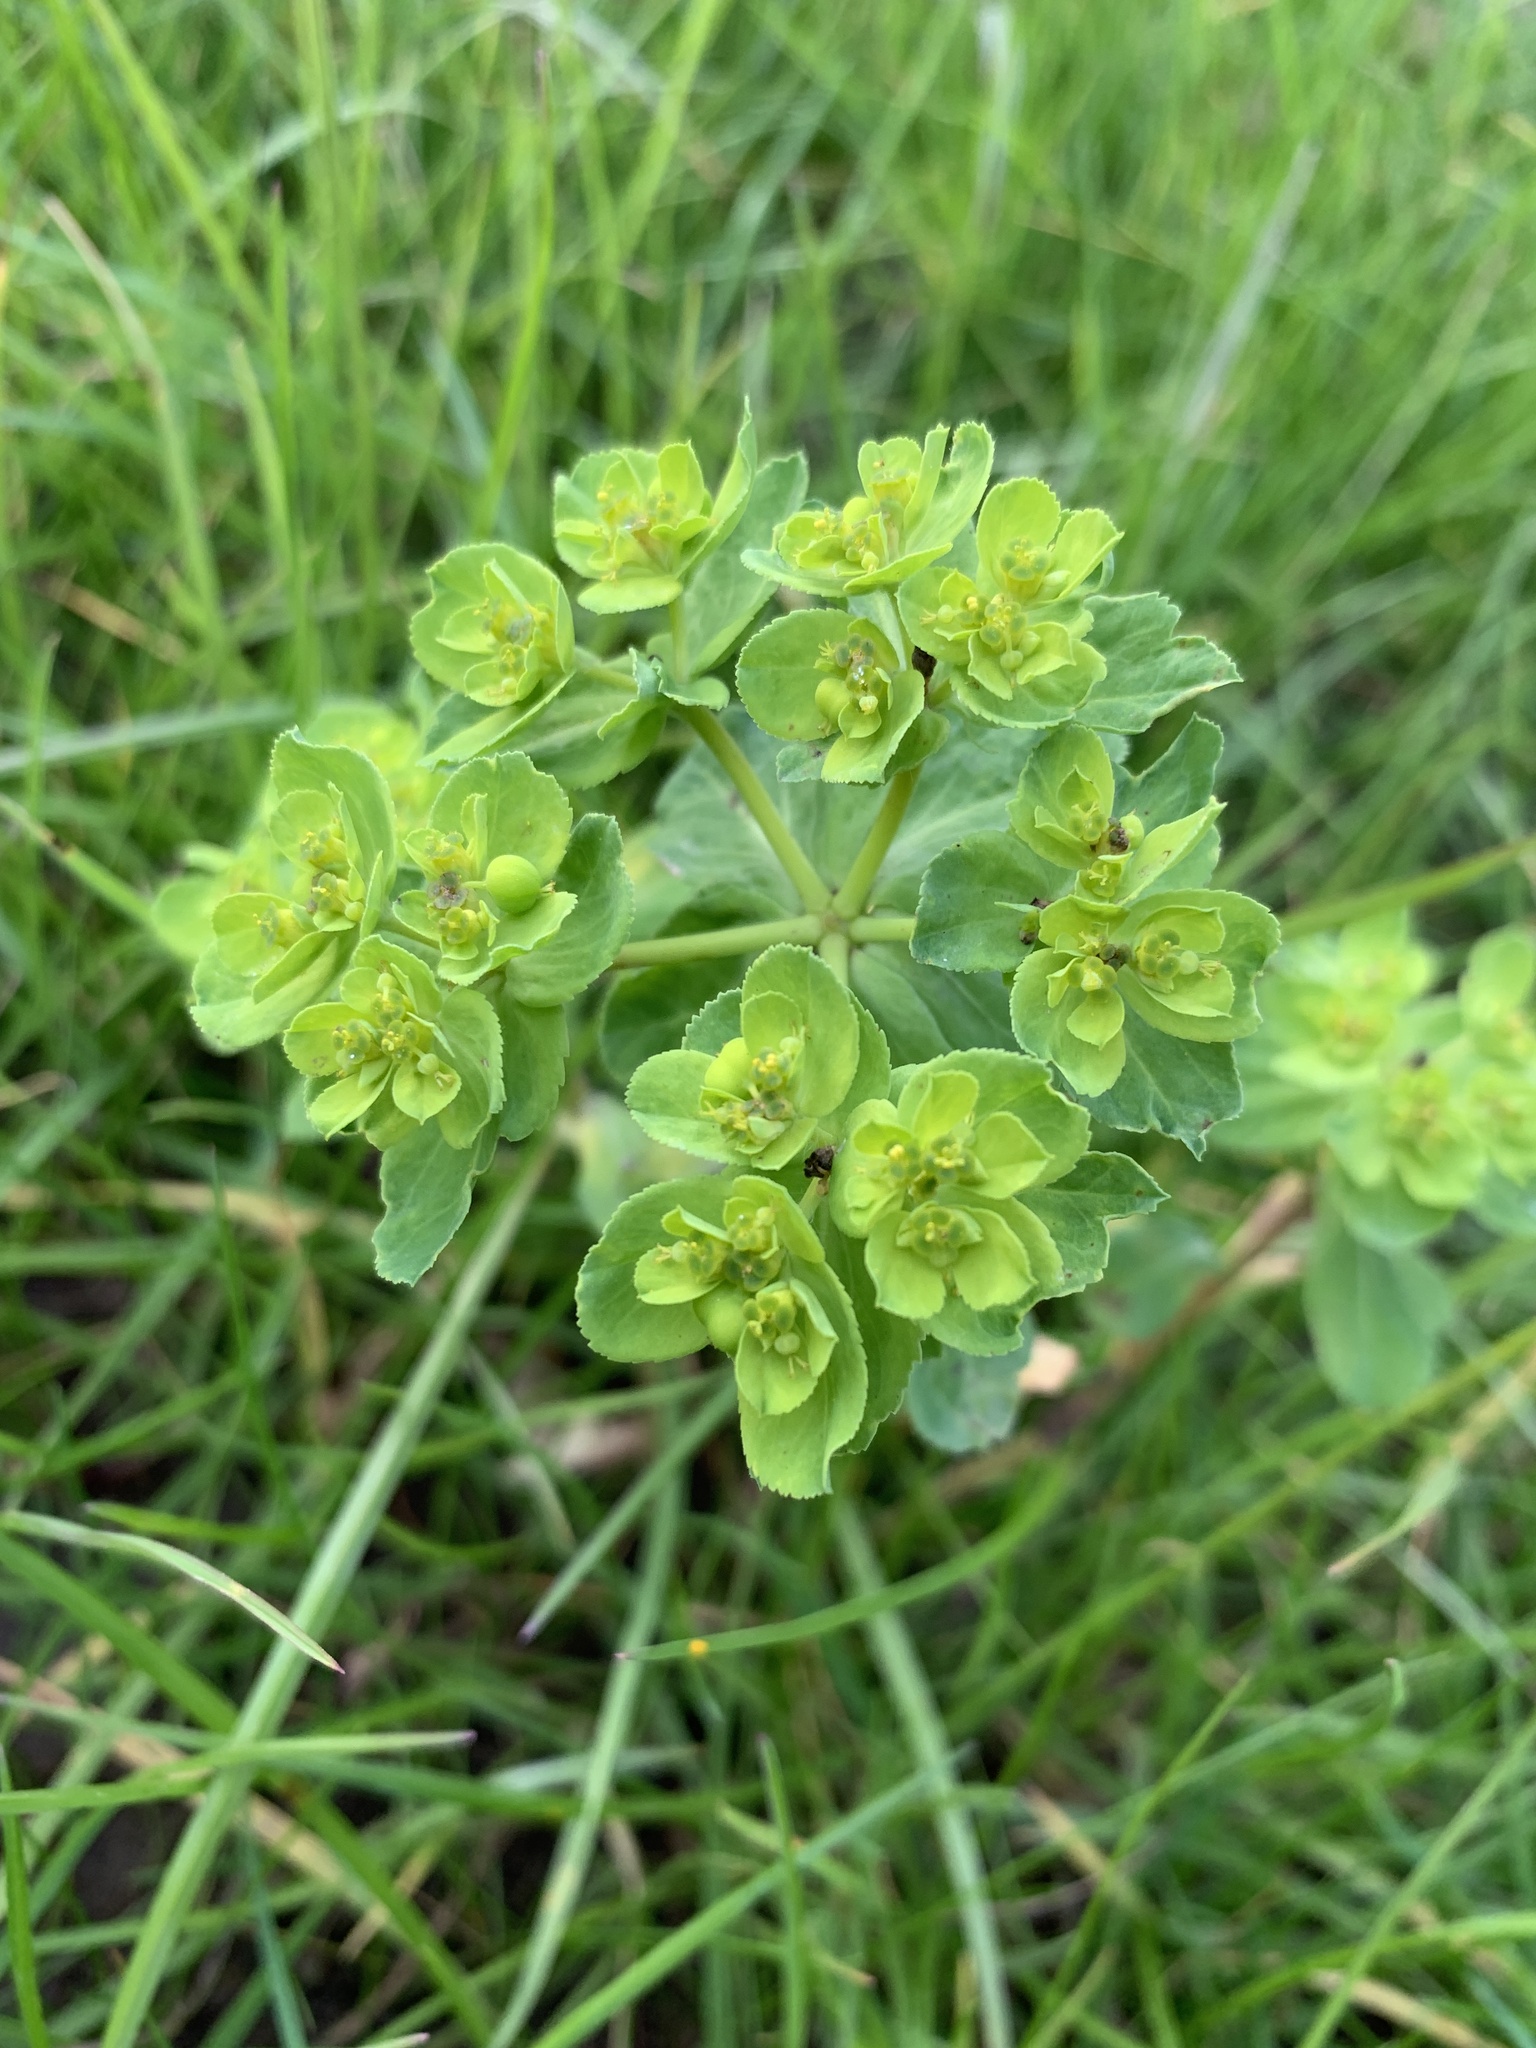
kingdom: Plantae
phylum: Tracheophyta
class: Magnoliopsida
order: Malpighiales
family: Euphorbiaceae
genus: Euphorbia
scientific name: Euphorbia helioscopia
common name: Sun spurge
